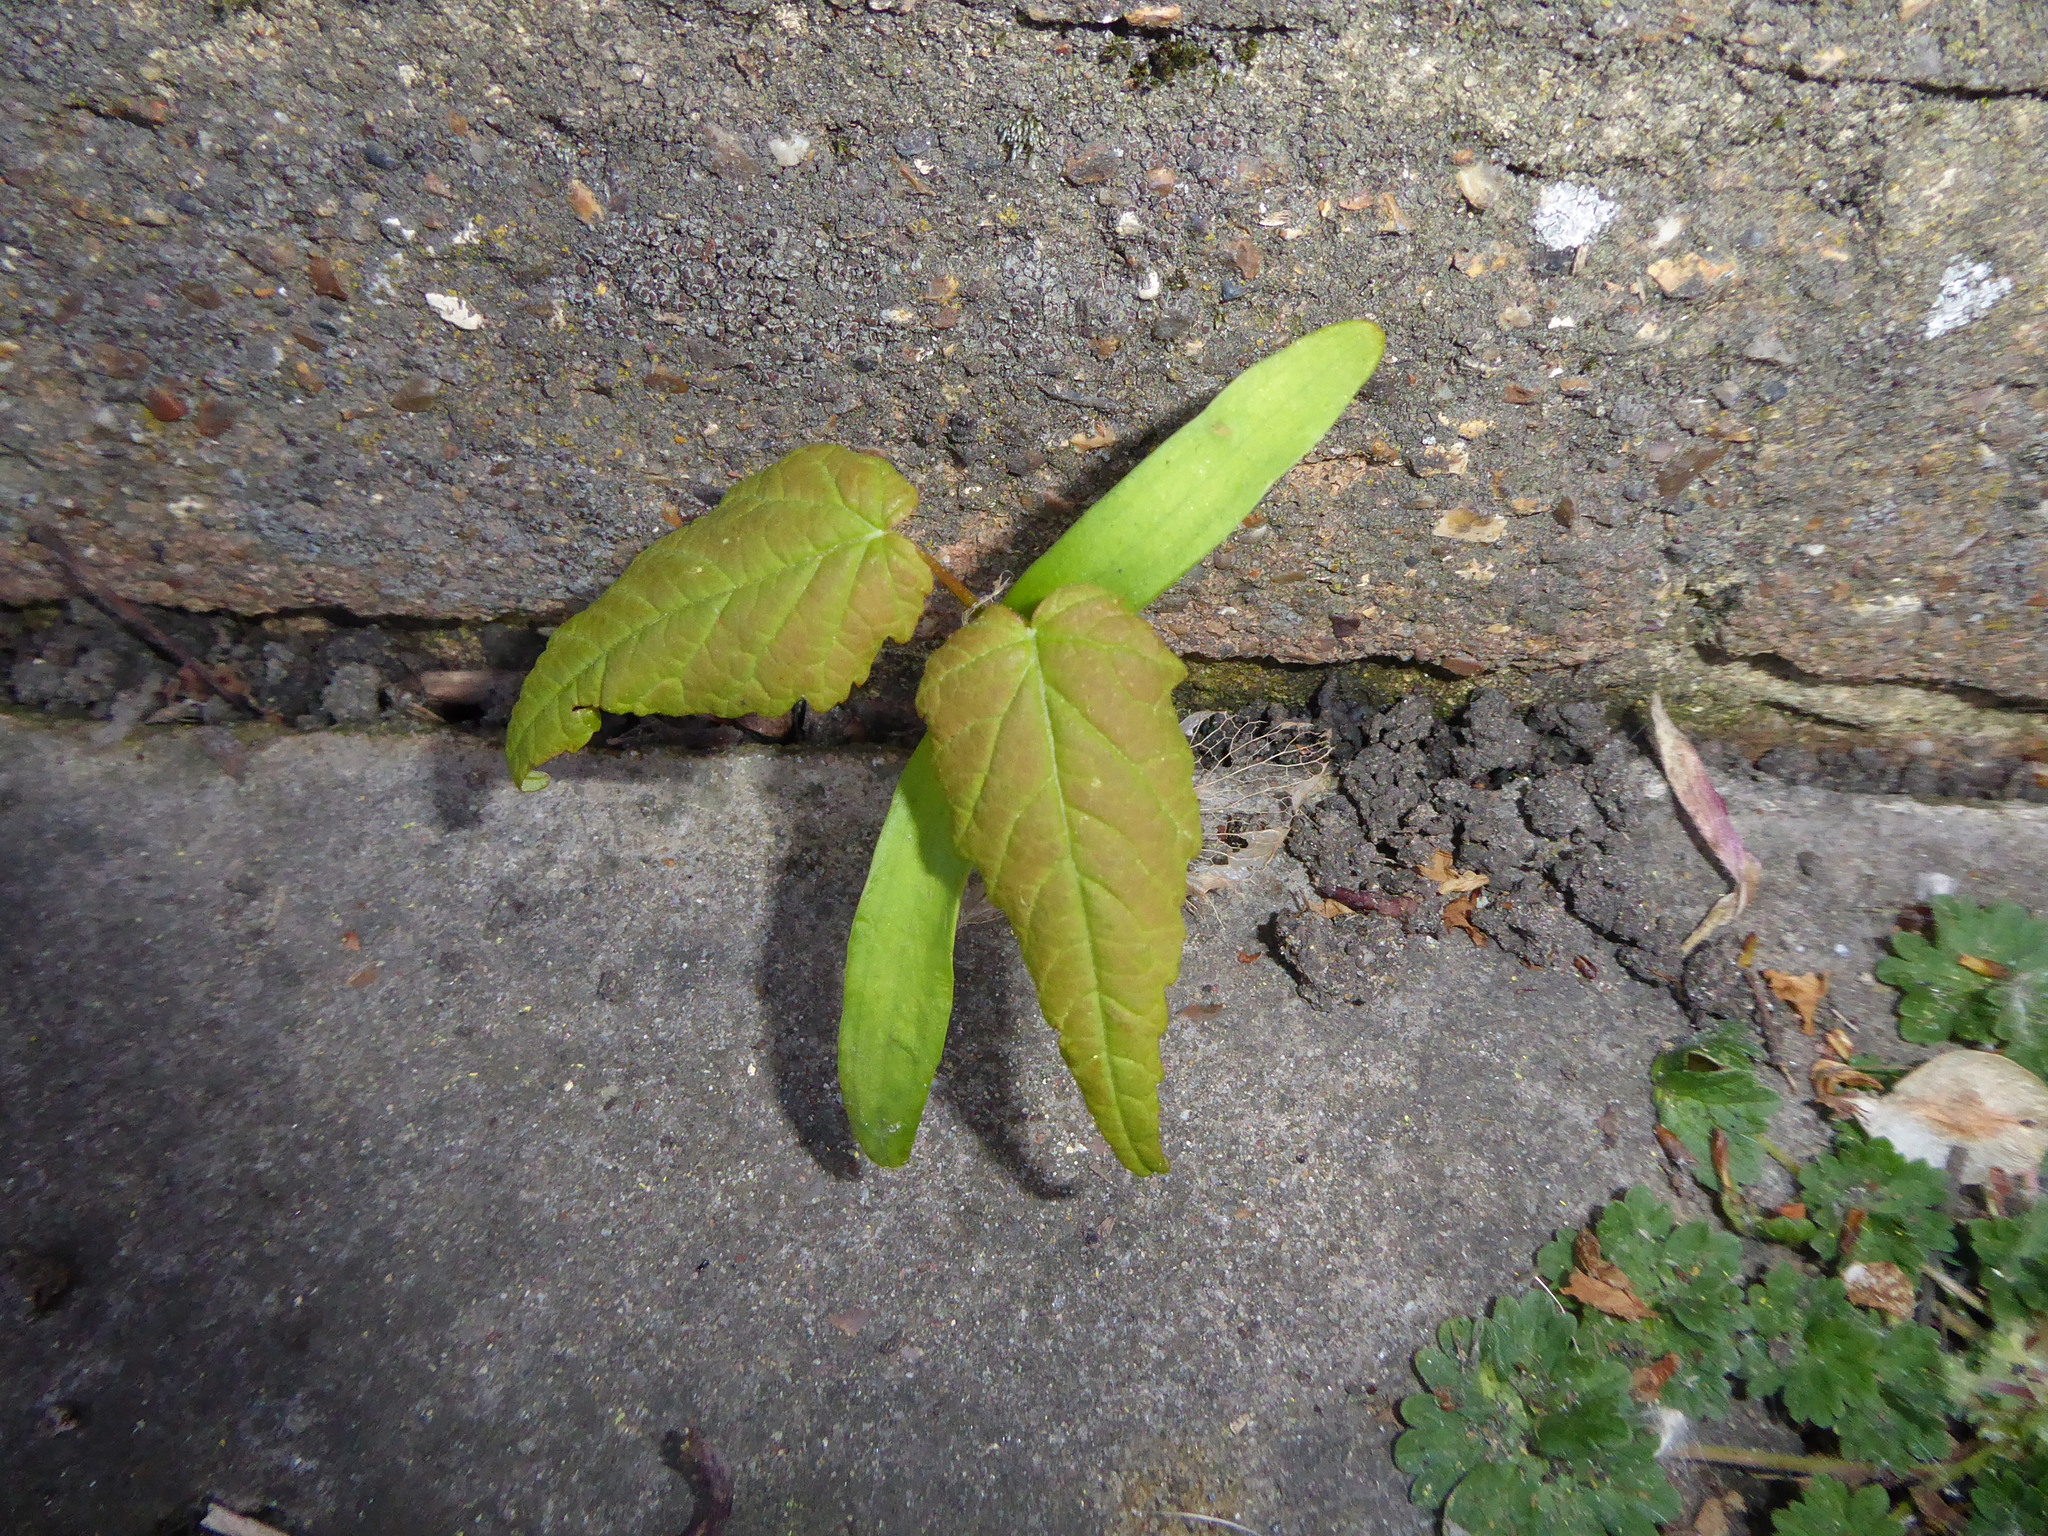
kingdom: Plantae
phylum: Tracheophyta
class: Magnoliopsida
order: Sapindales
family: Sapindaceae
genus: Acer
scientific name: Acer pseudoplatanus
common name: Sycamore
